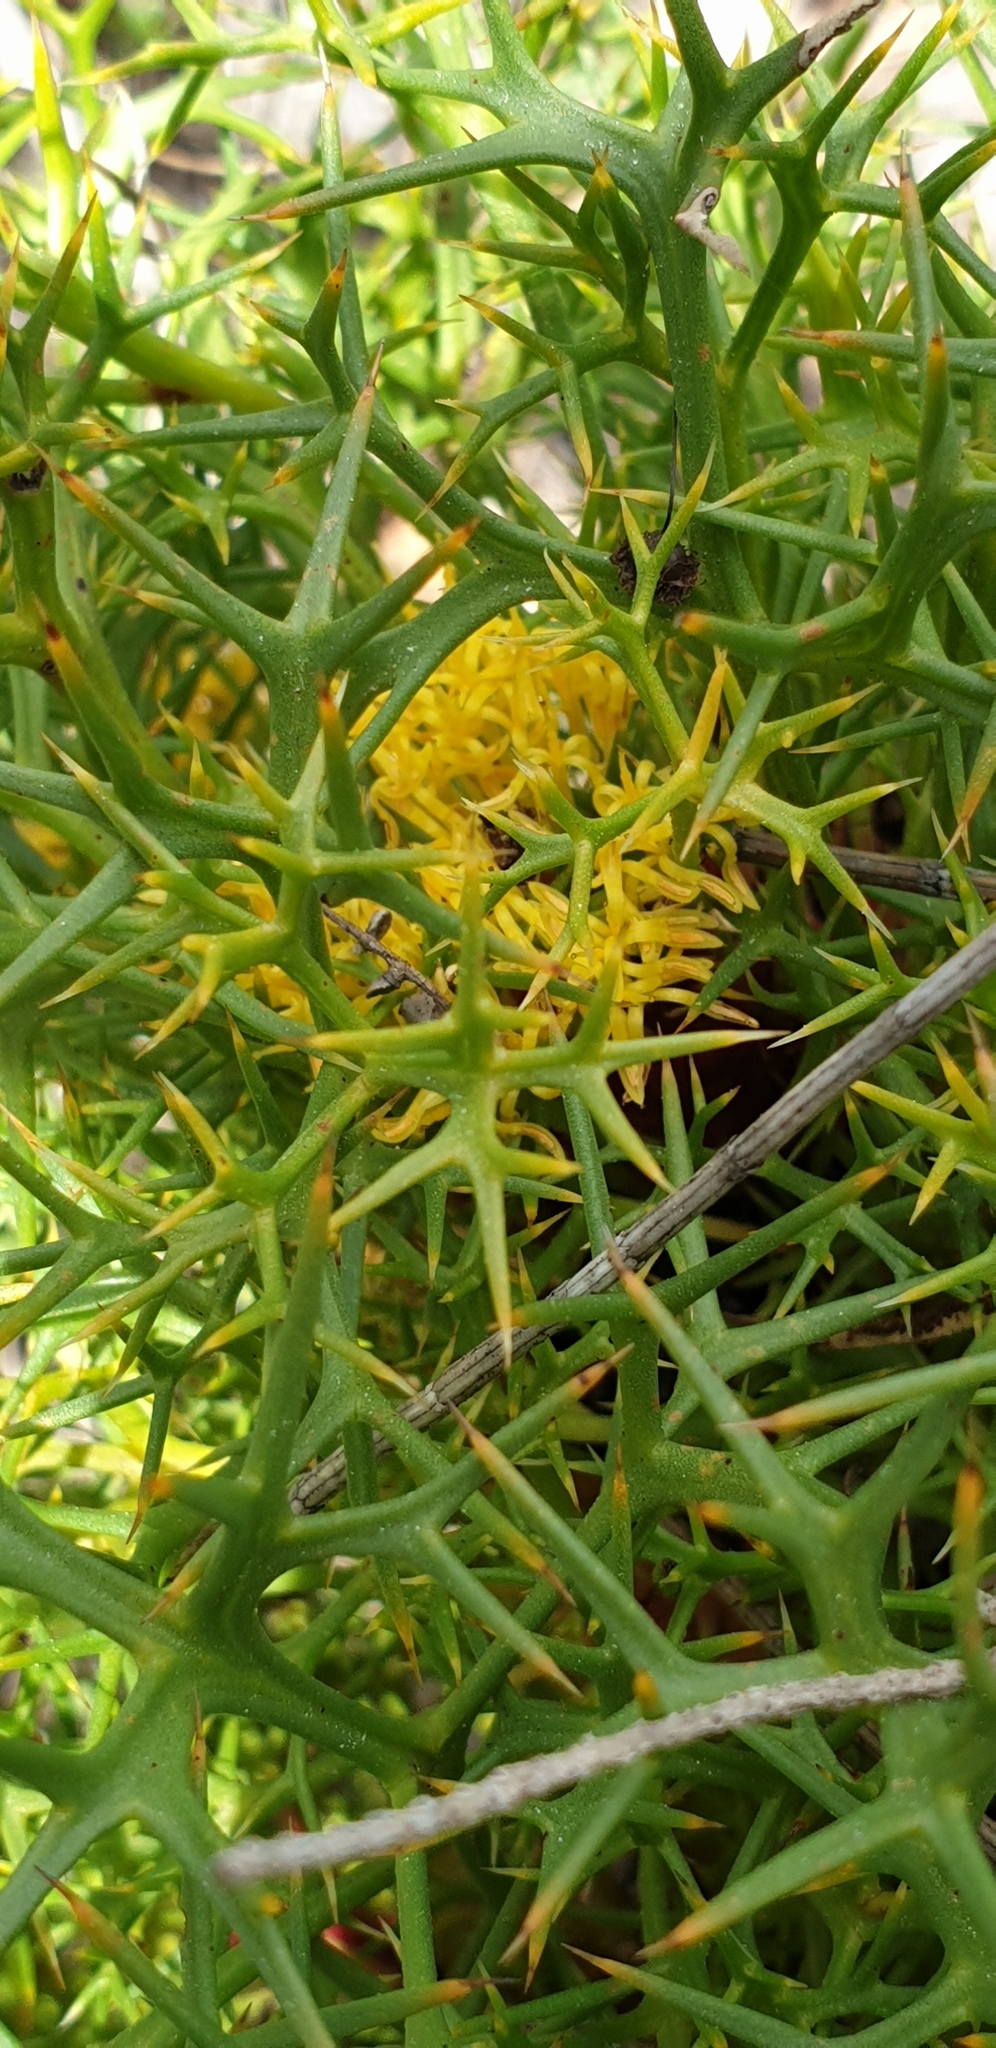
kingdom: Plantae
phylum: Tracheophyta
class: Magnoliopsida
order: Proteales
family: Proteaceae
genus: Isopogon
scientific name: Isopogon ceratophyllus
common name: Horny cone-bush
